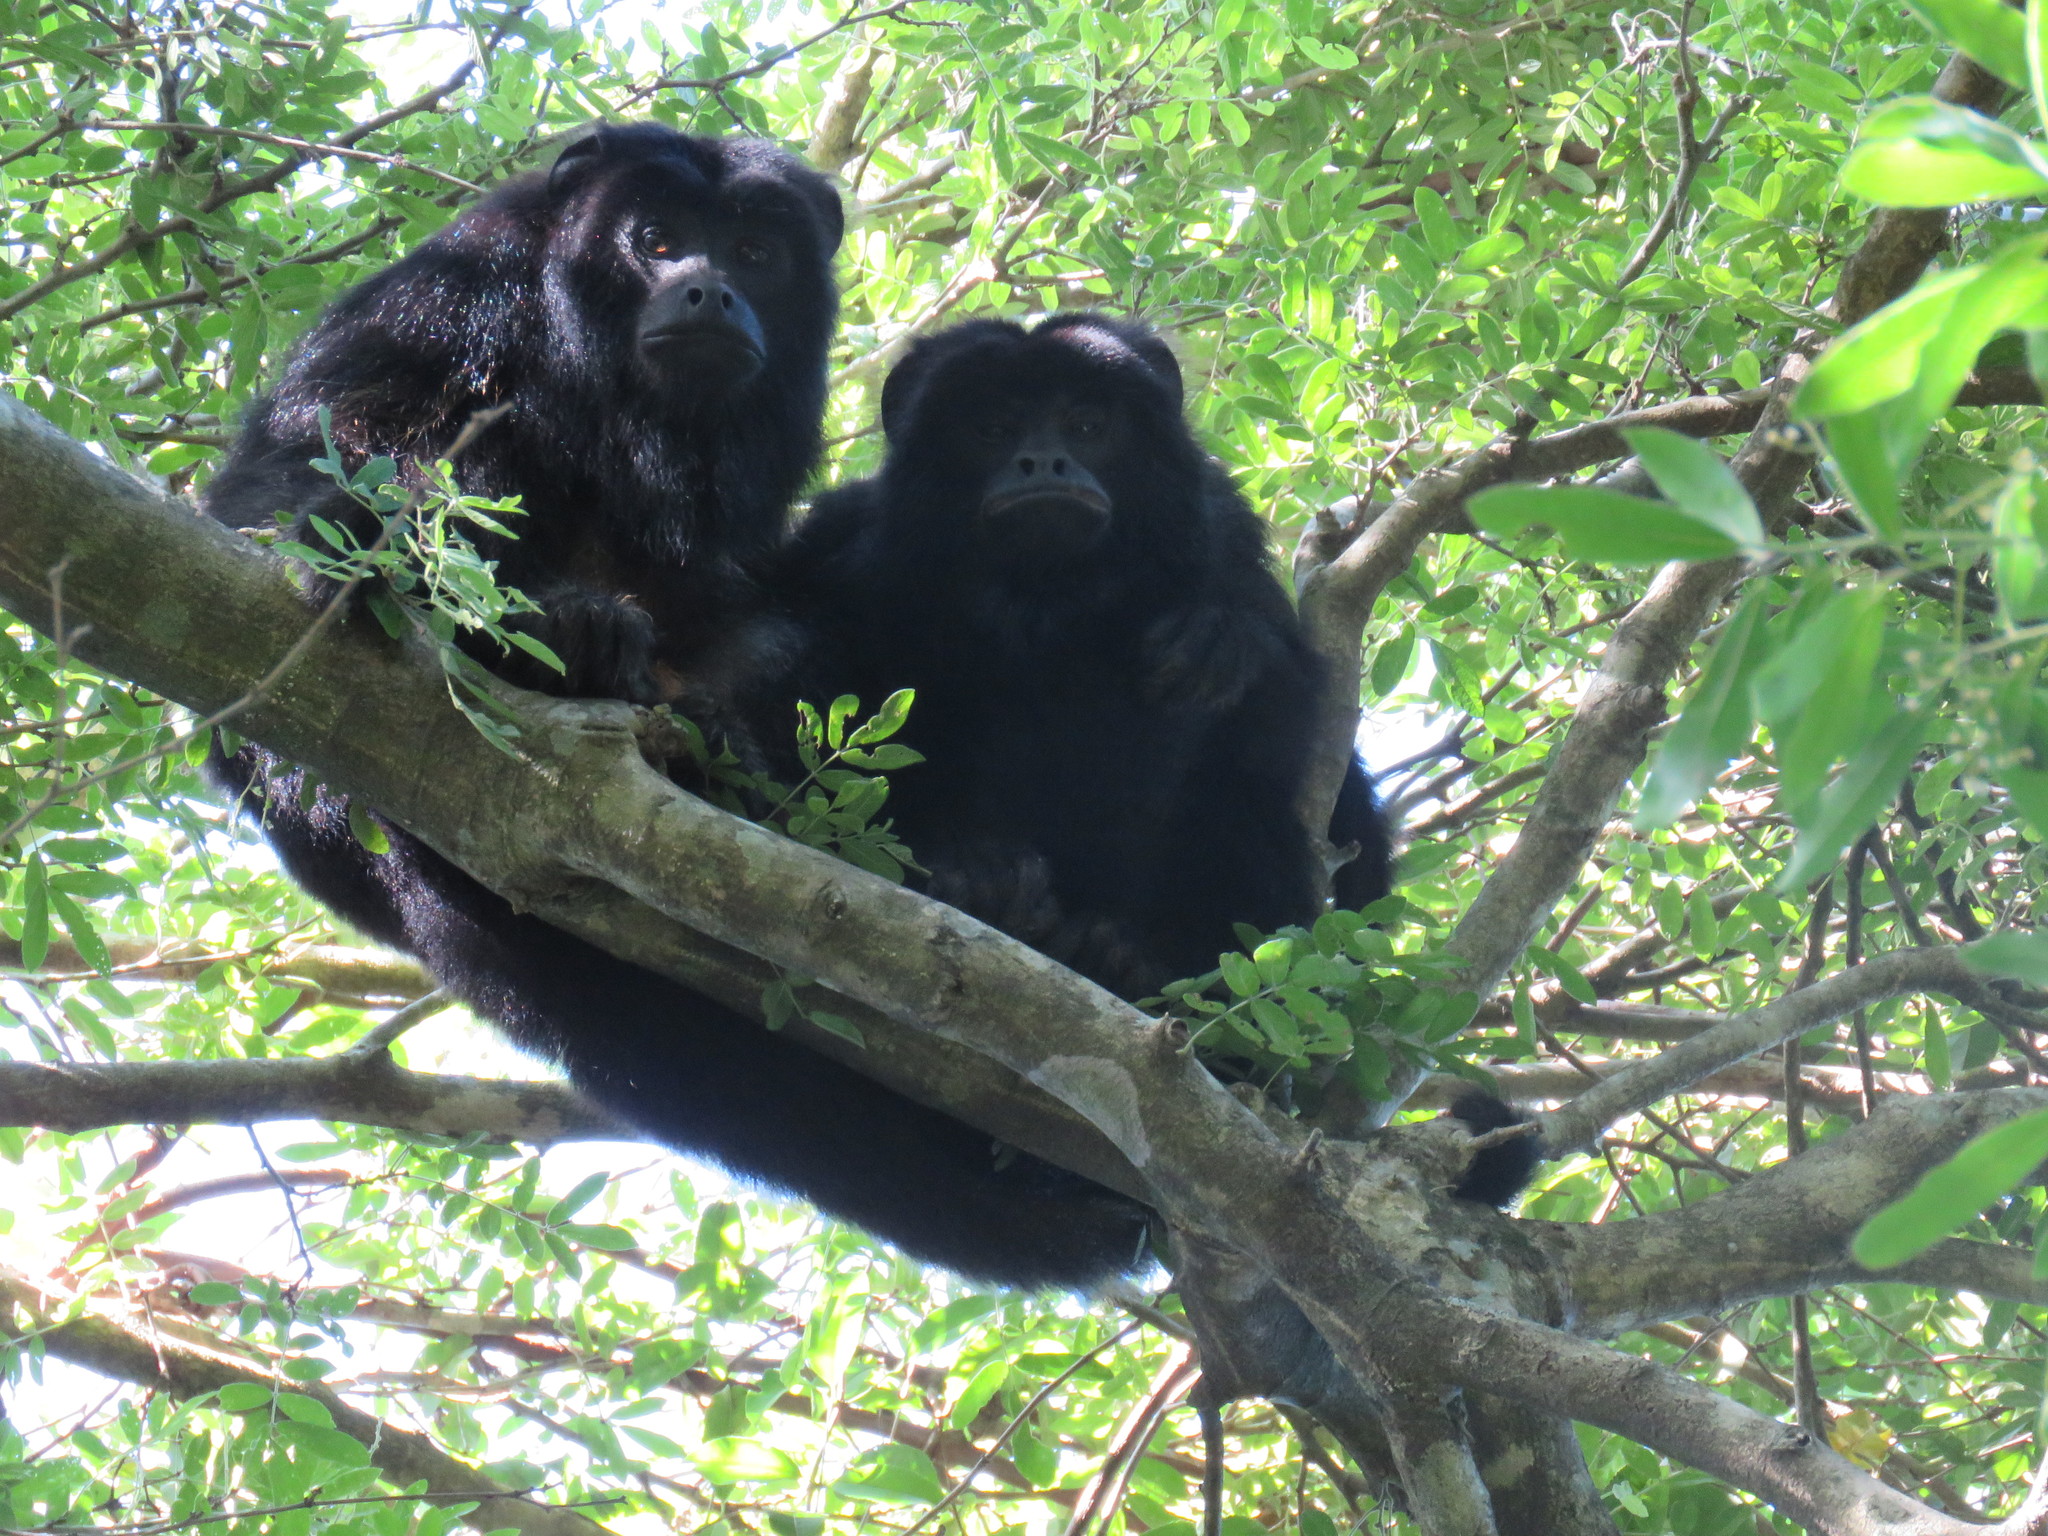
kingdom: Animalia
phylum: Chordata
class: Mammalia
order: Primates
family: Atelidae
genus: Alouatta
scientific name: Alouatta caraya
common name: Black howler
